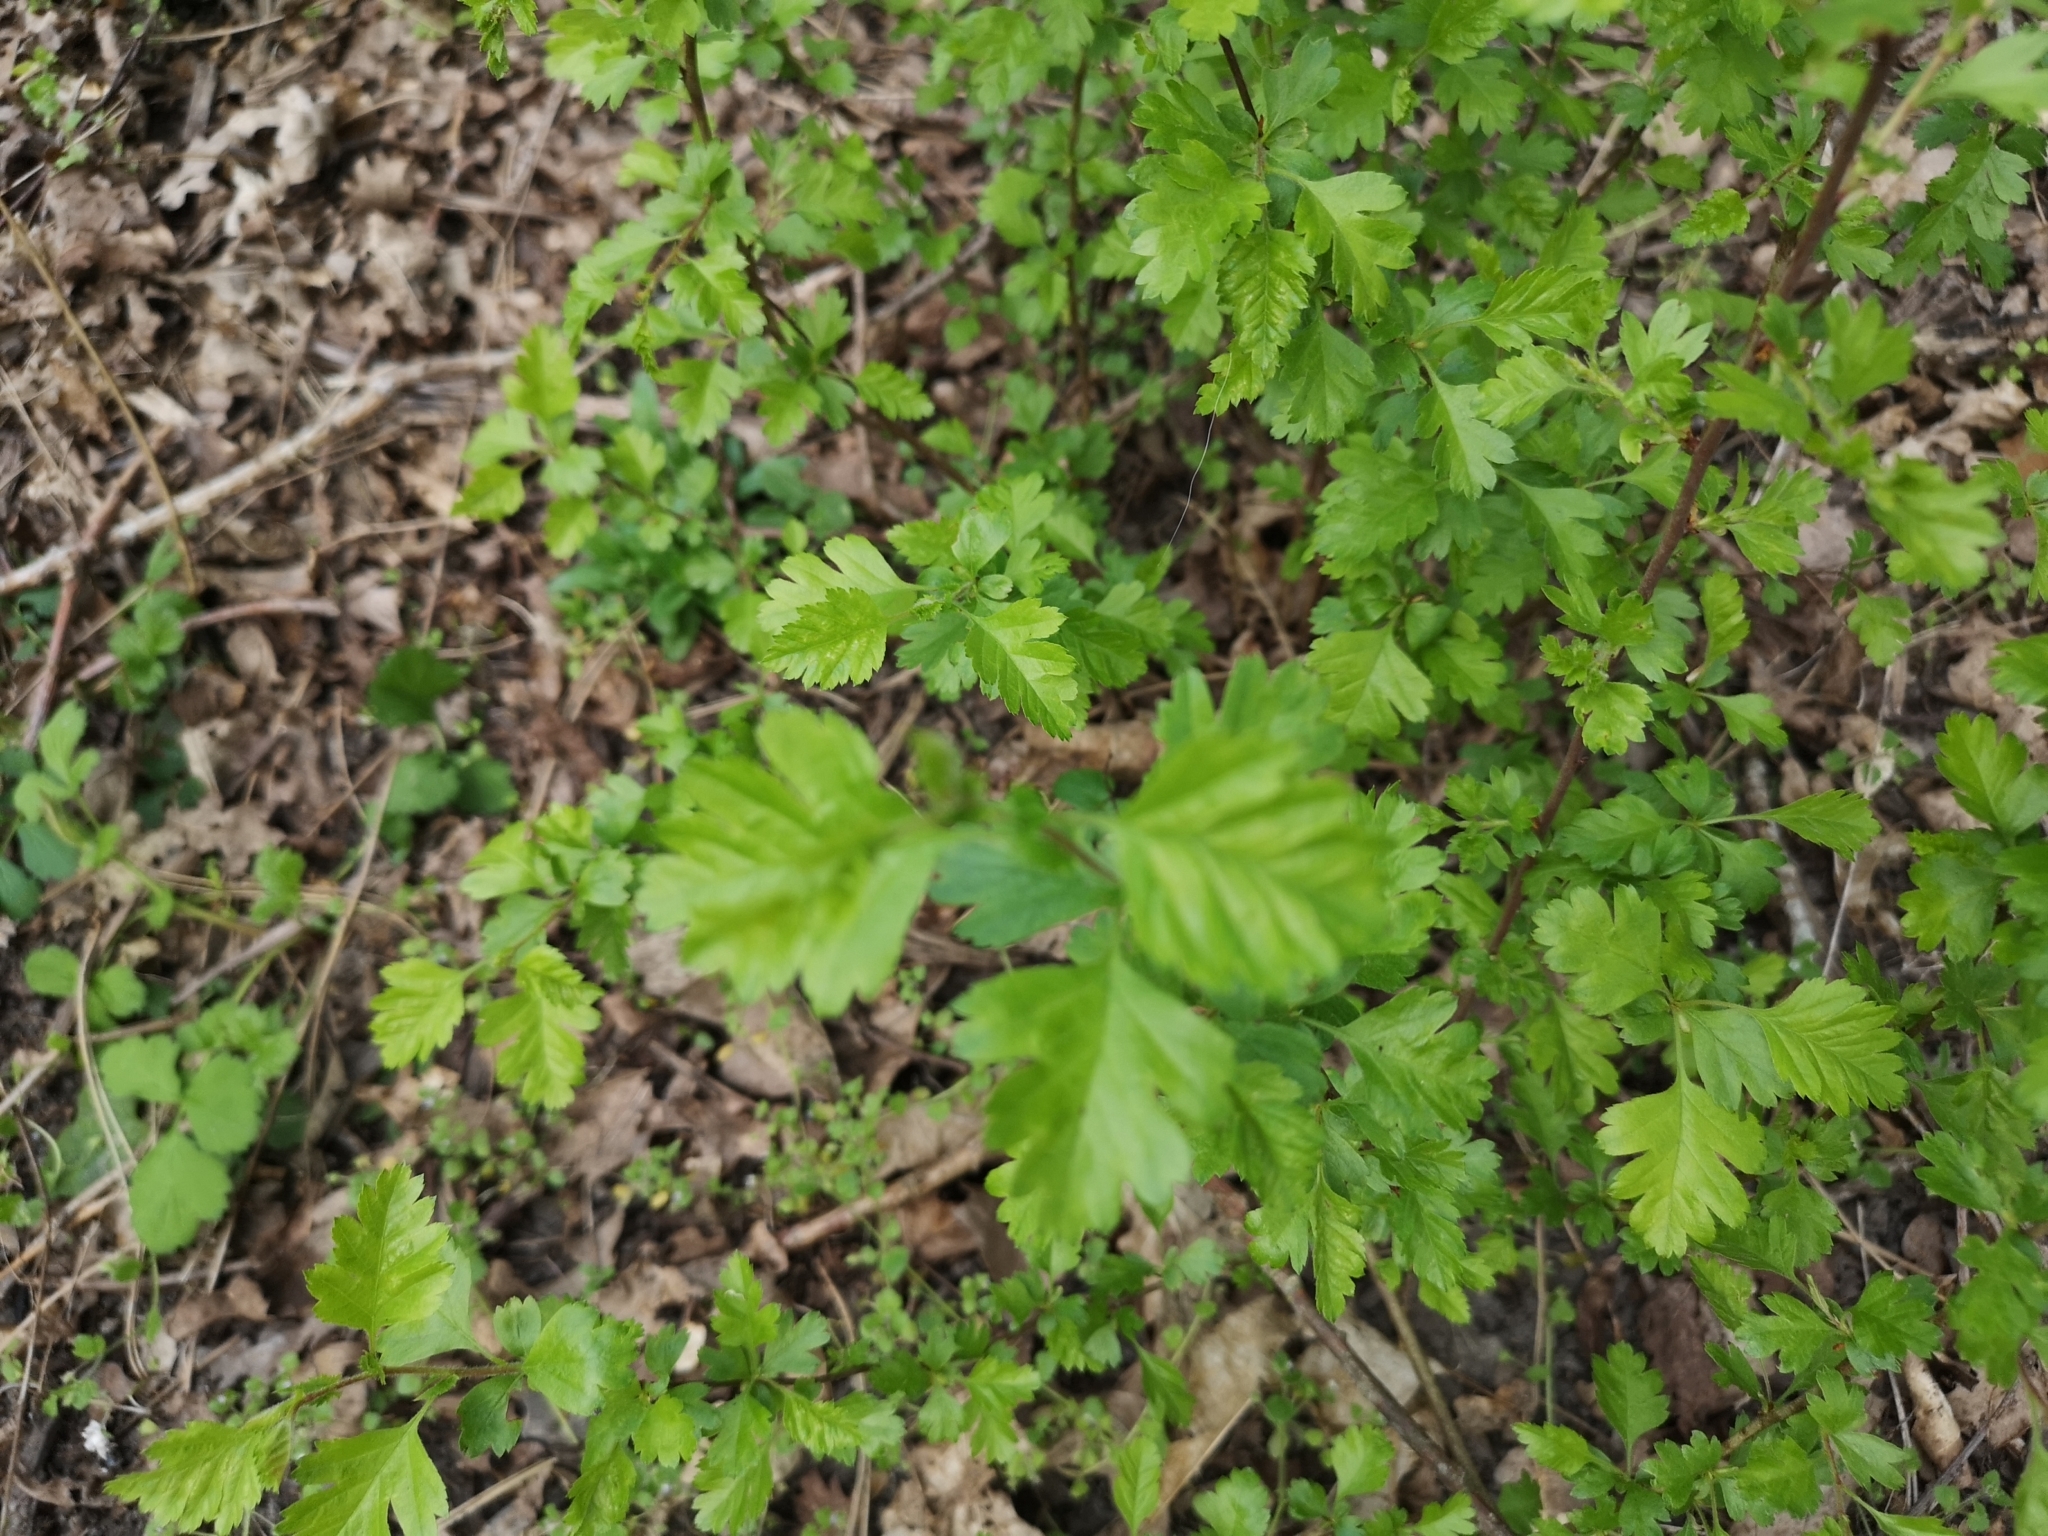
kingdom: Plantae
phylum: Tracheophyta
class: Magnoliopsida
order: Rosales
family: Rosaceae
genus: Crataegus
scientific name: Crataegus monogyna
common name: Hawthorn
